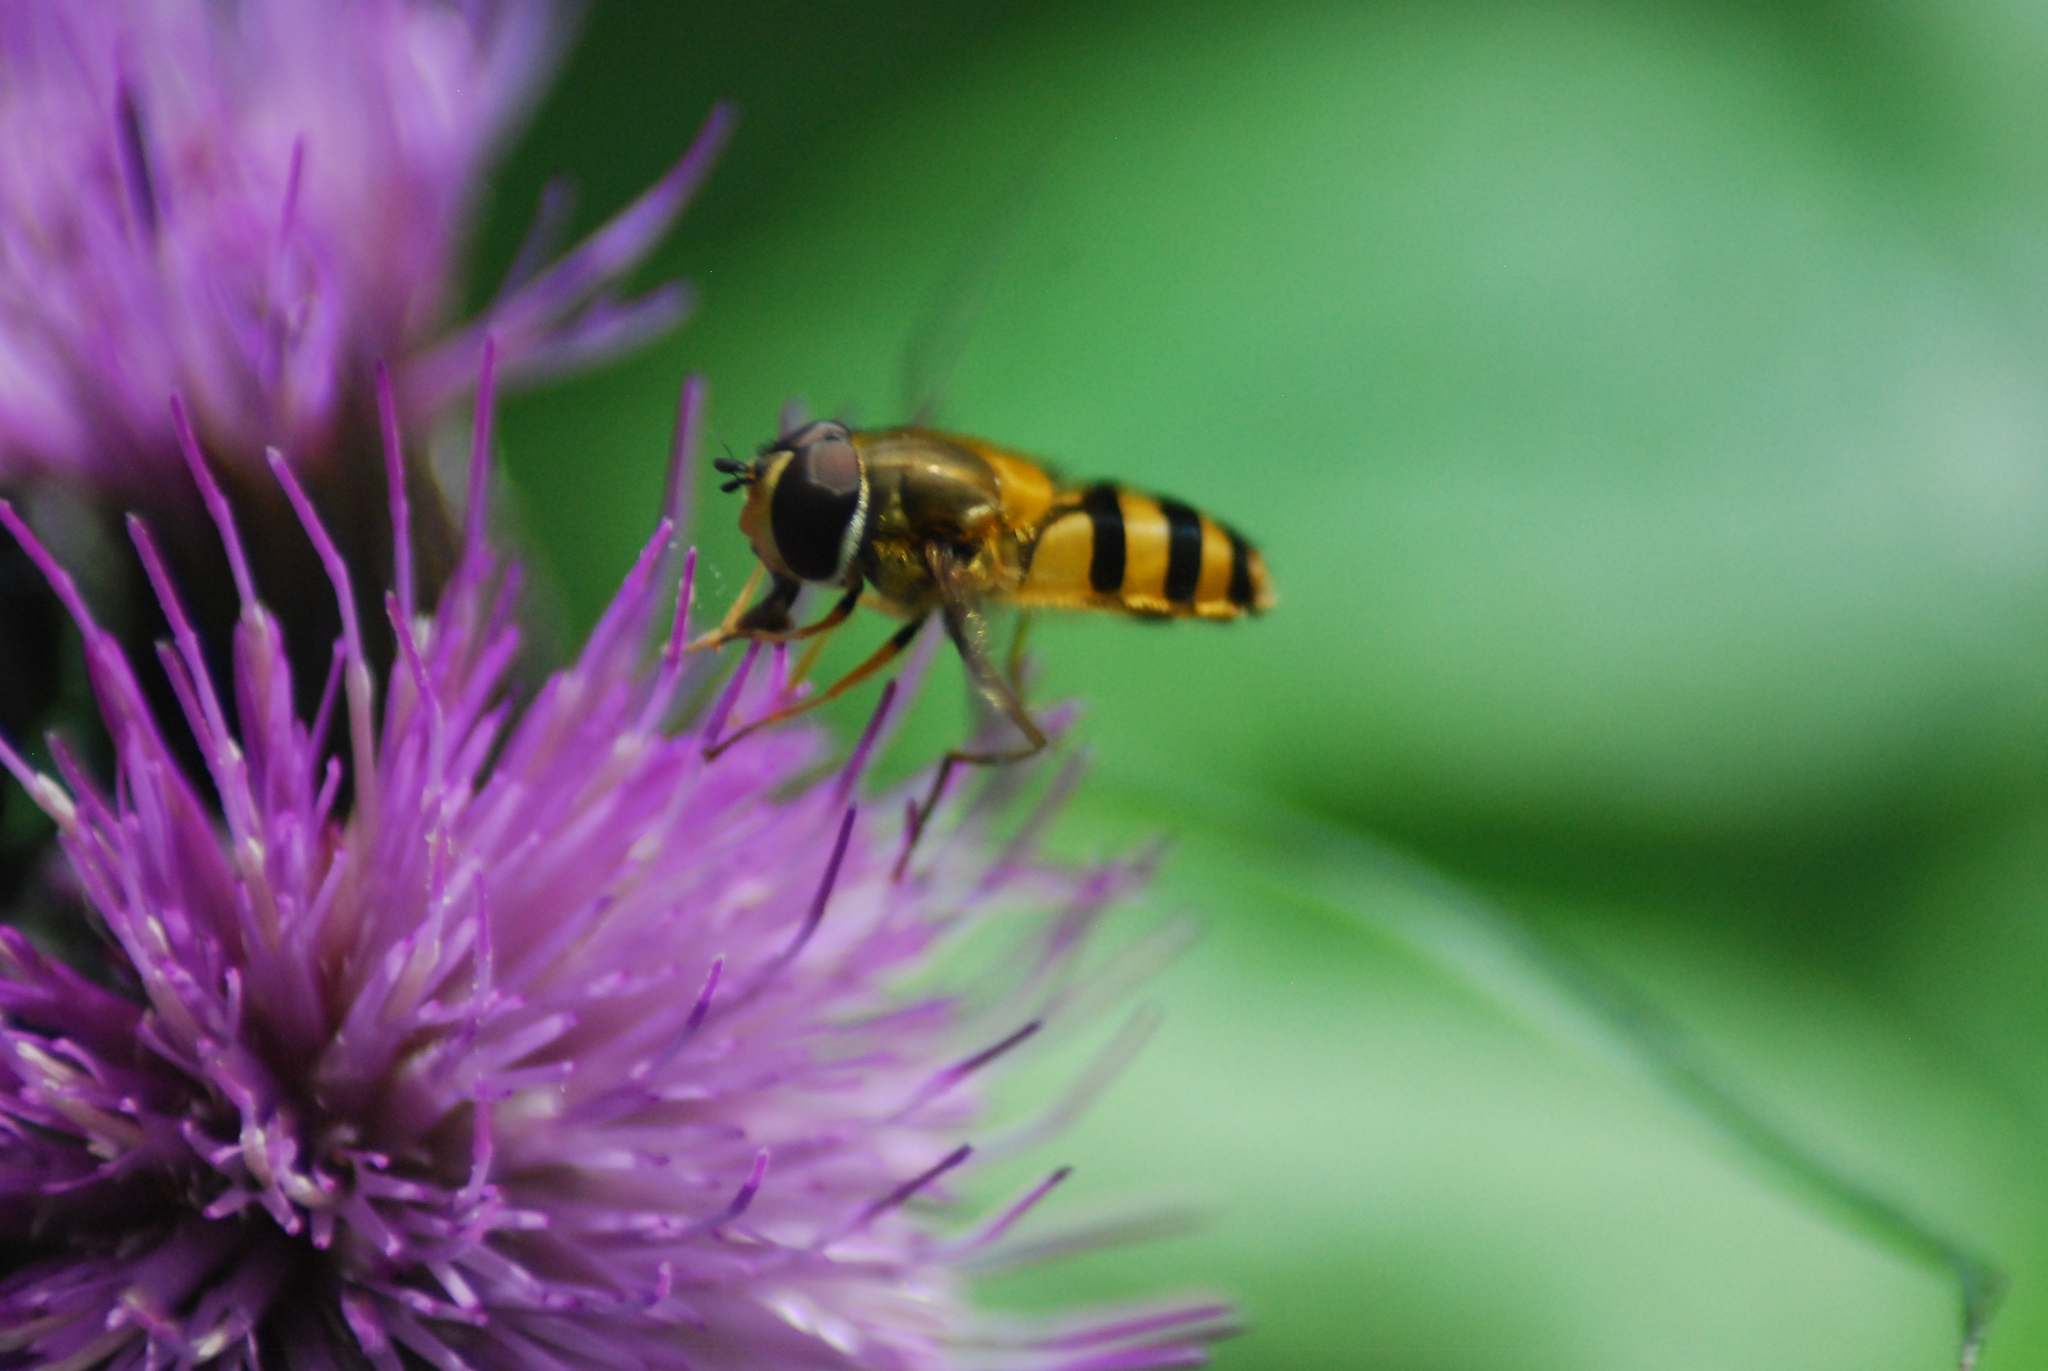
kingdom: Animalia
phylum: Arthropoda
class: Insecta
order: Diptera
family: Syrphidae
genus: Epistrophe
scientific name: Epistrophe grossulariae
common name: Black-horned smoothtail
